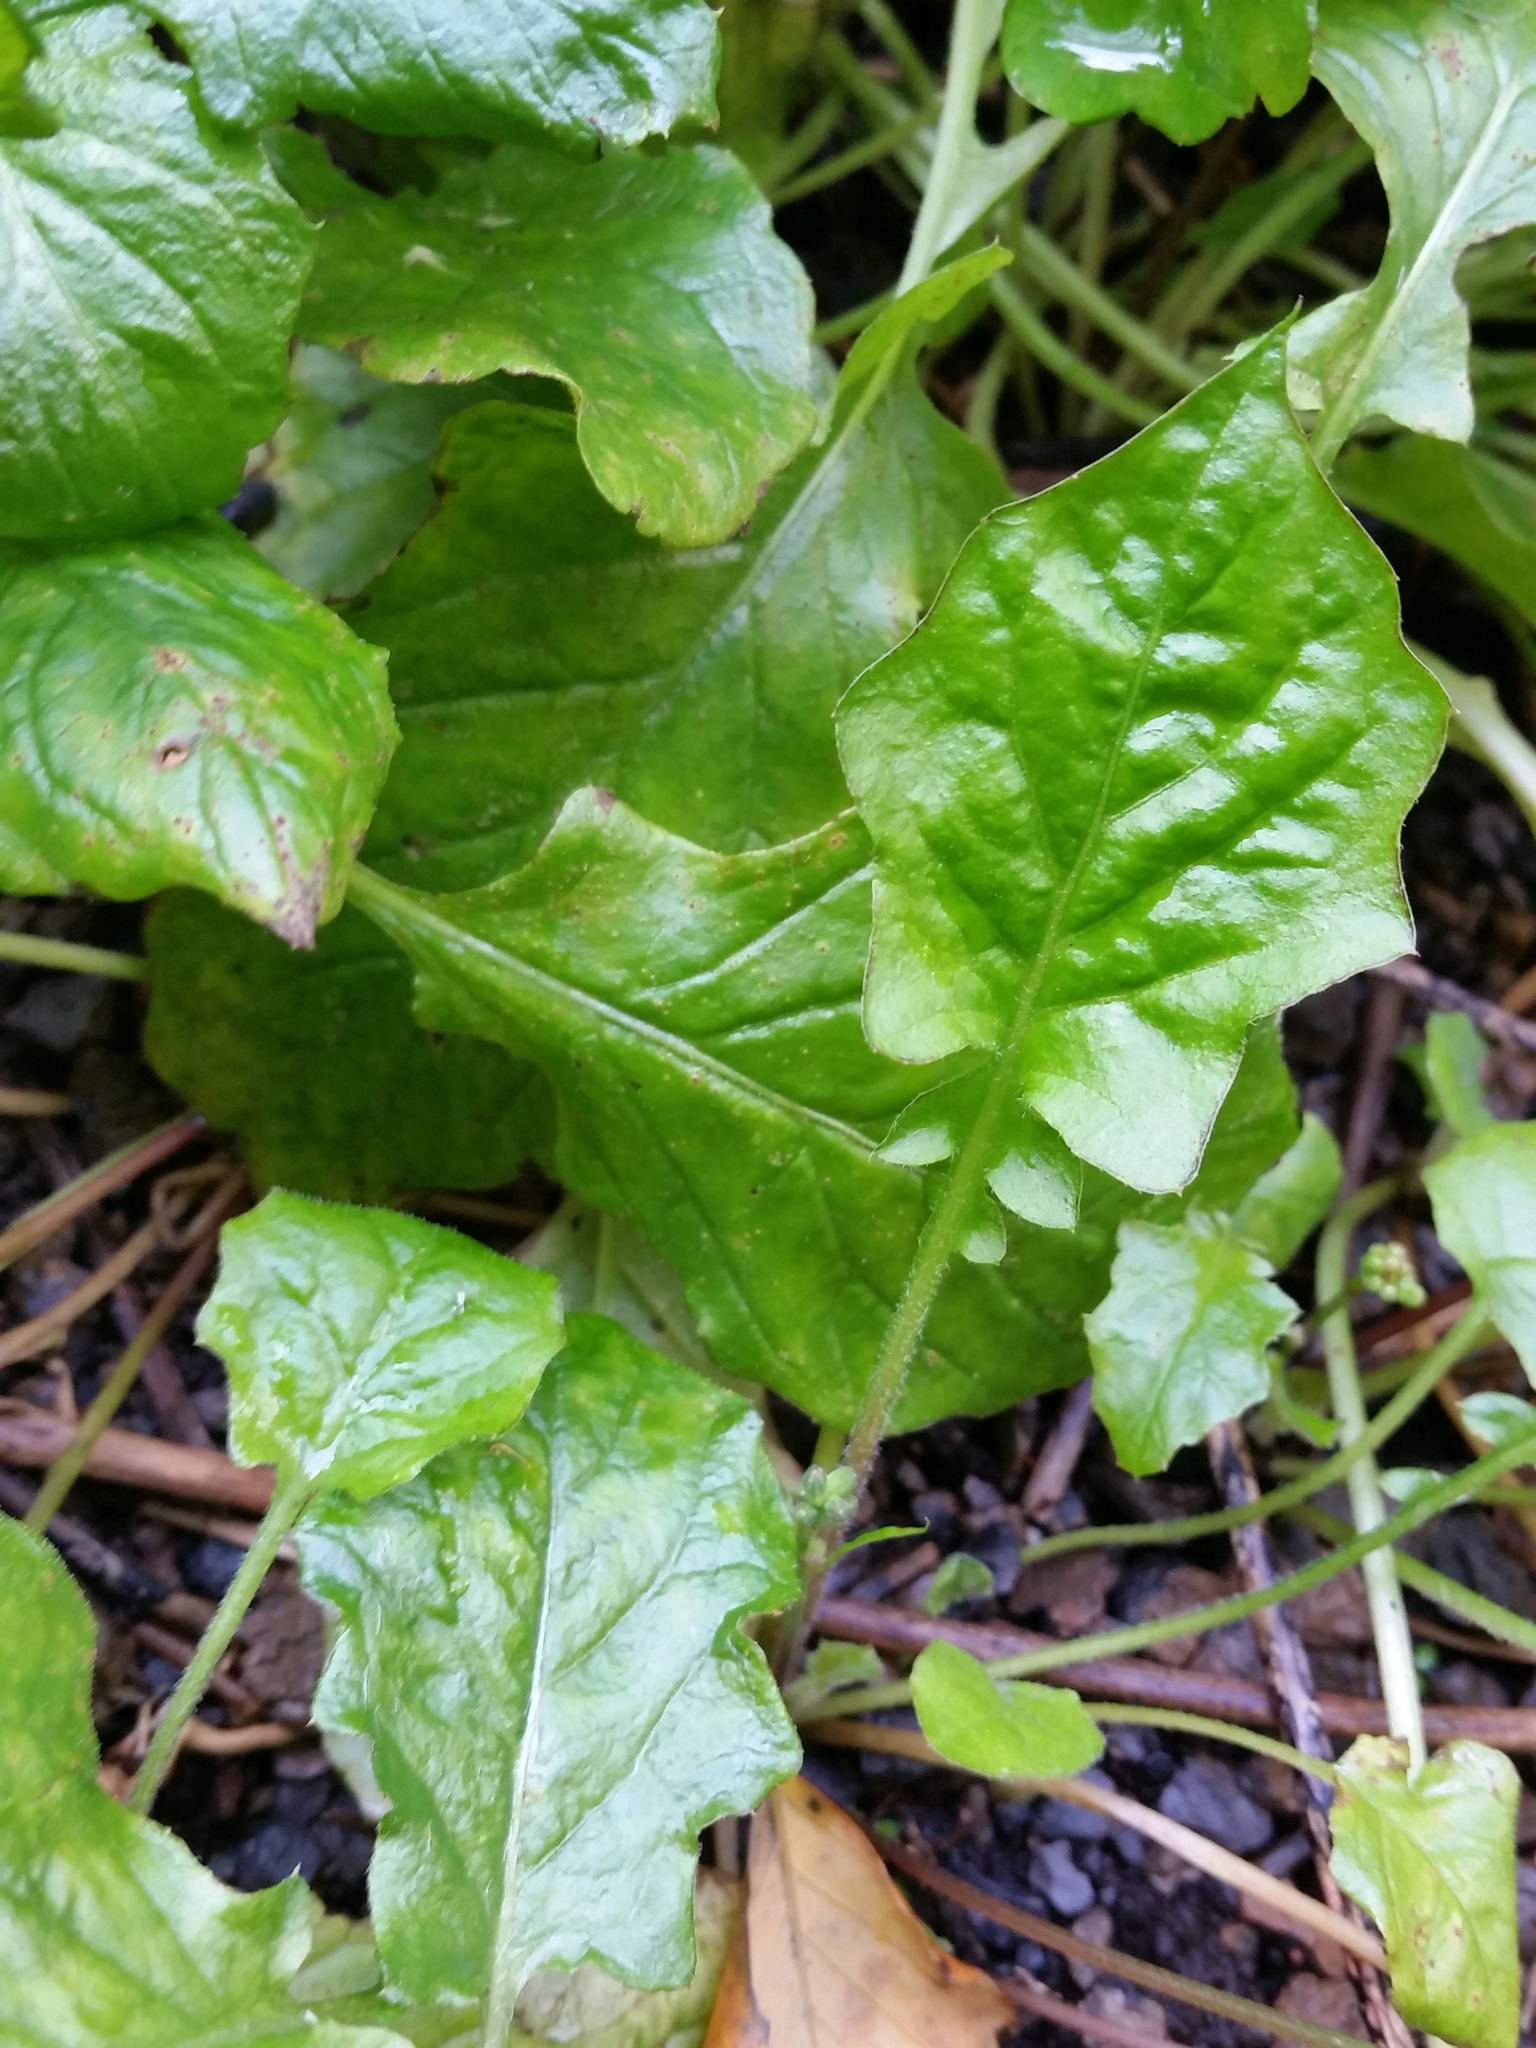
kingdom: Plantae
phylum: Tracheophyta
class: Magnoliopsida
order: Asterales
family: Asteraceae
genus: Youngia
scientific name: Youngia japonica
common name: Oriental false hawksbeard
